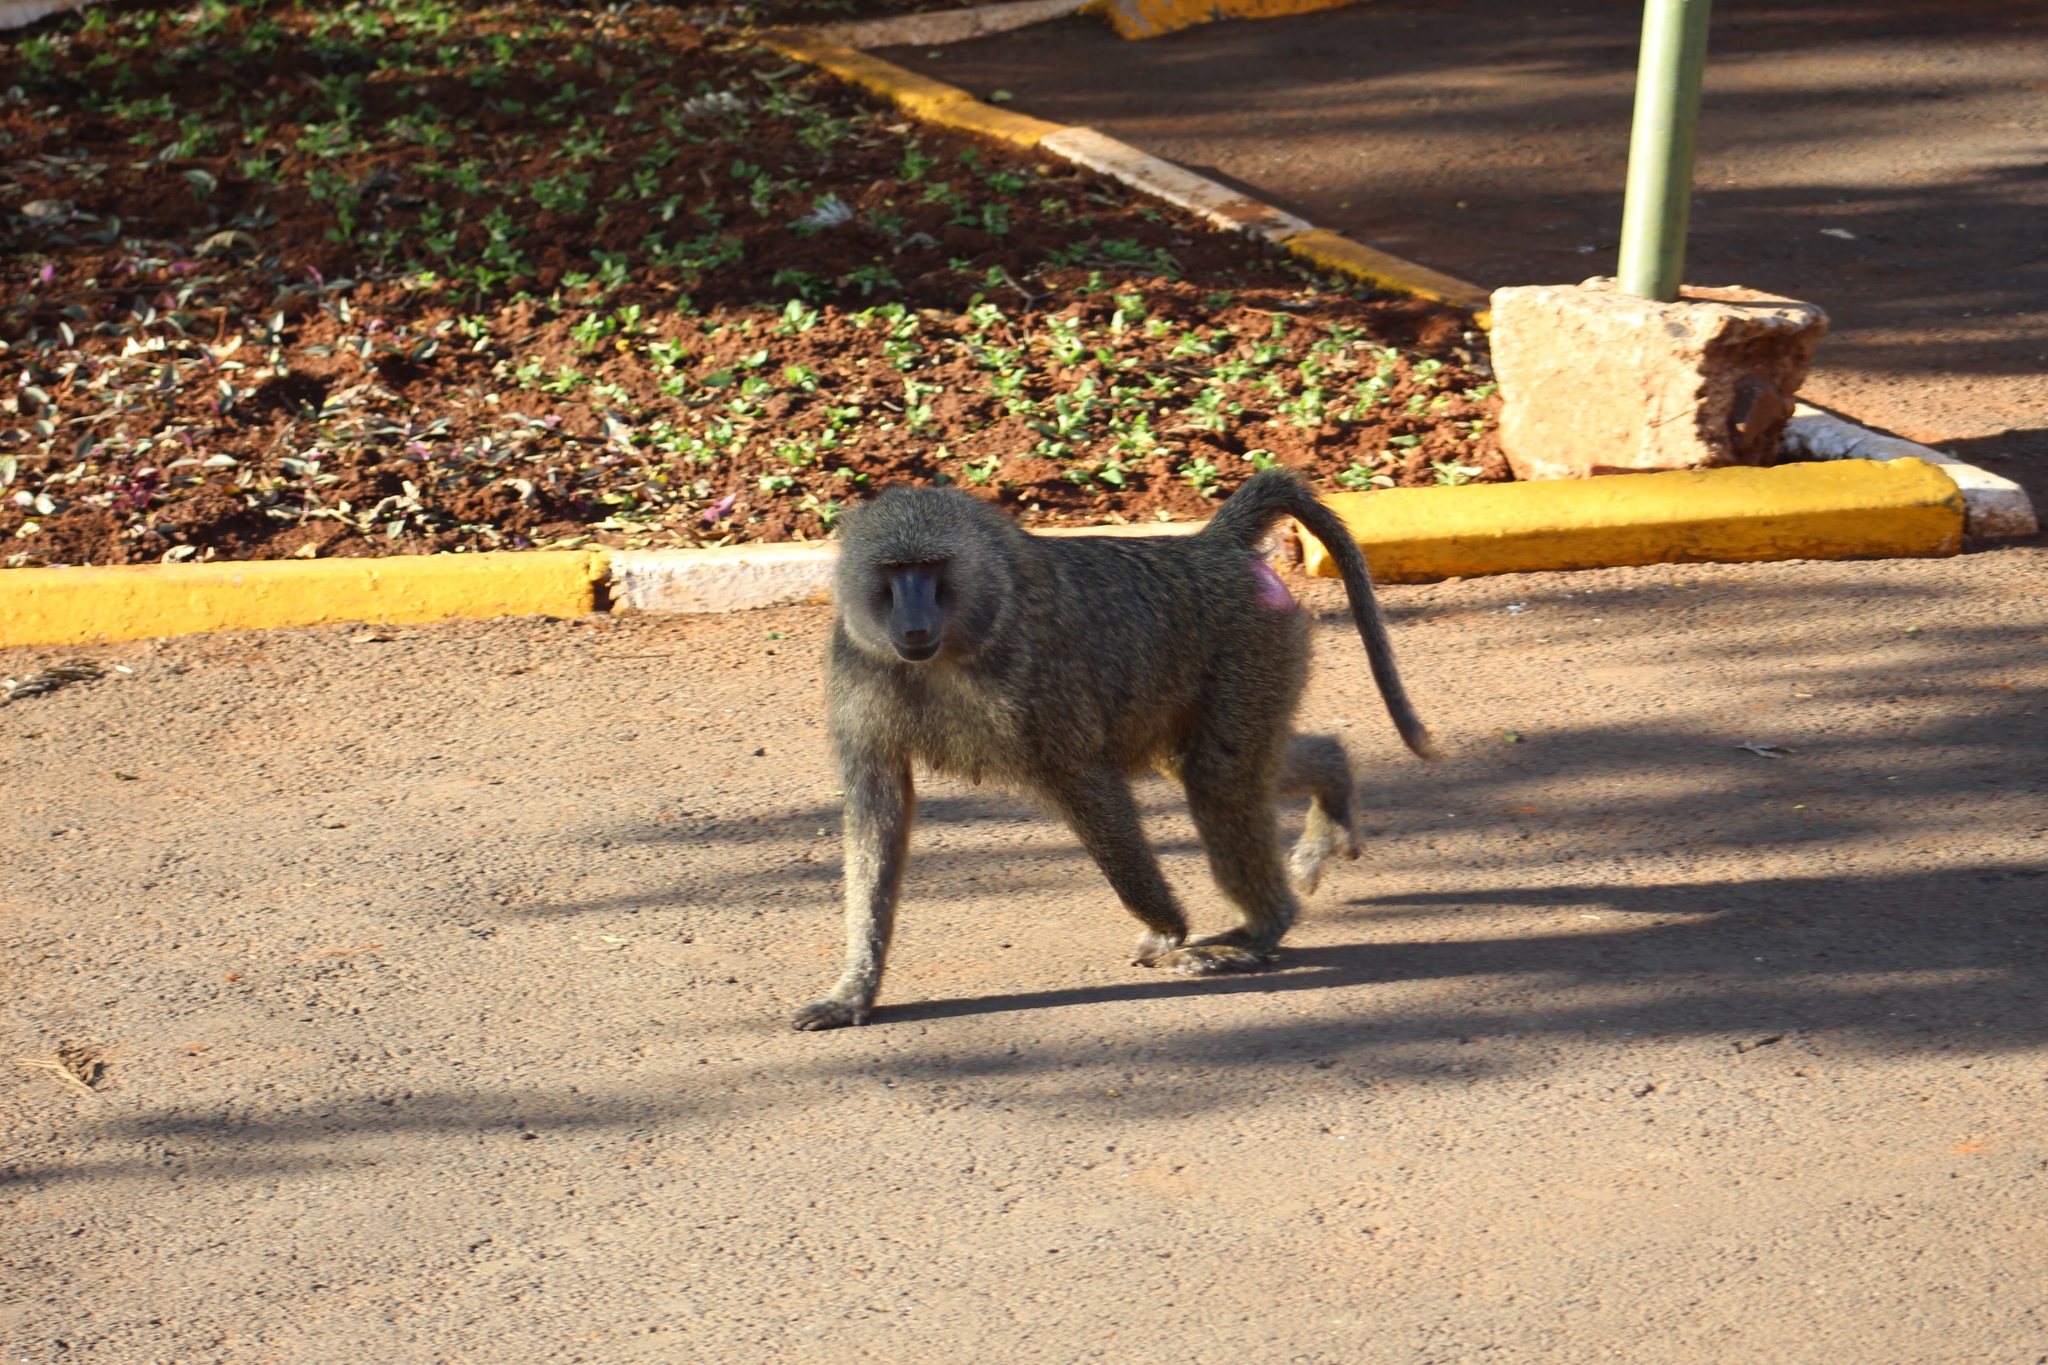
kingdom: Animalia
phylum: Chordata
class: Mammalia
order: Primates
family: Cercopithecidae
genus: Papio
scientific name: Papio anubis
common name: Olive baboon
